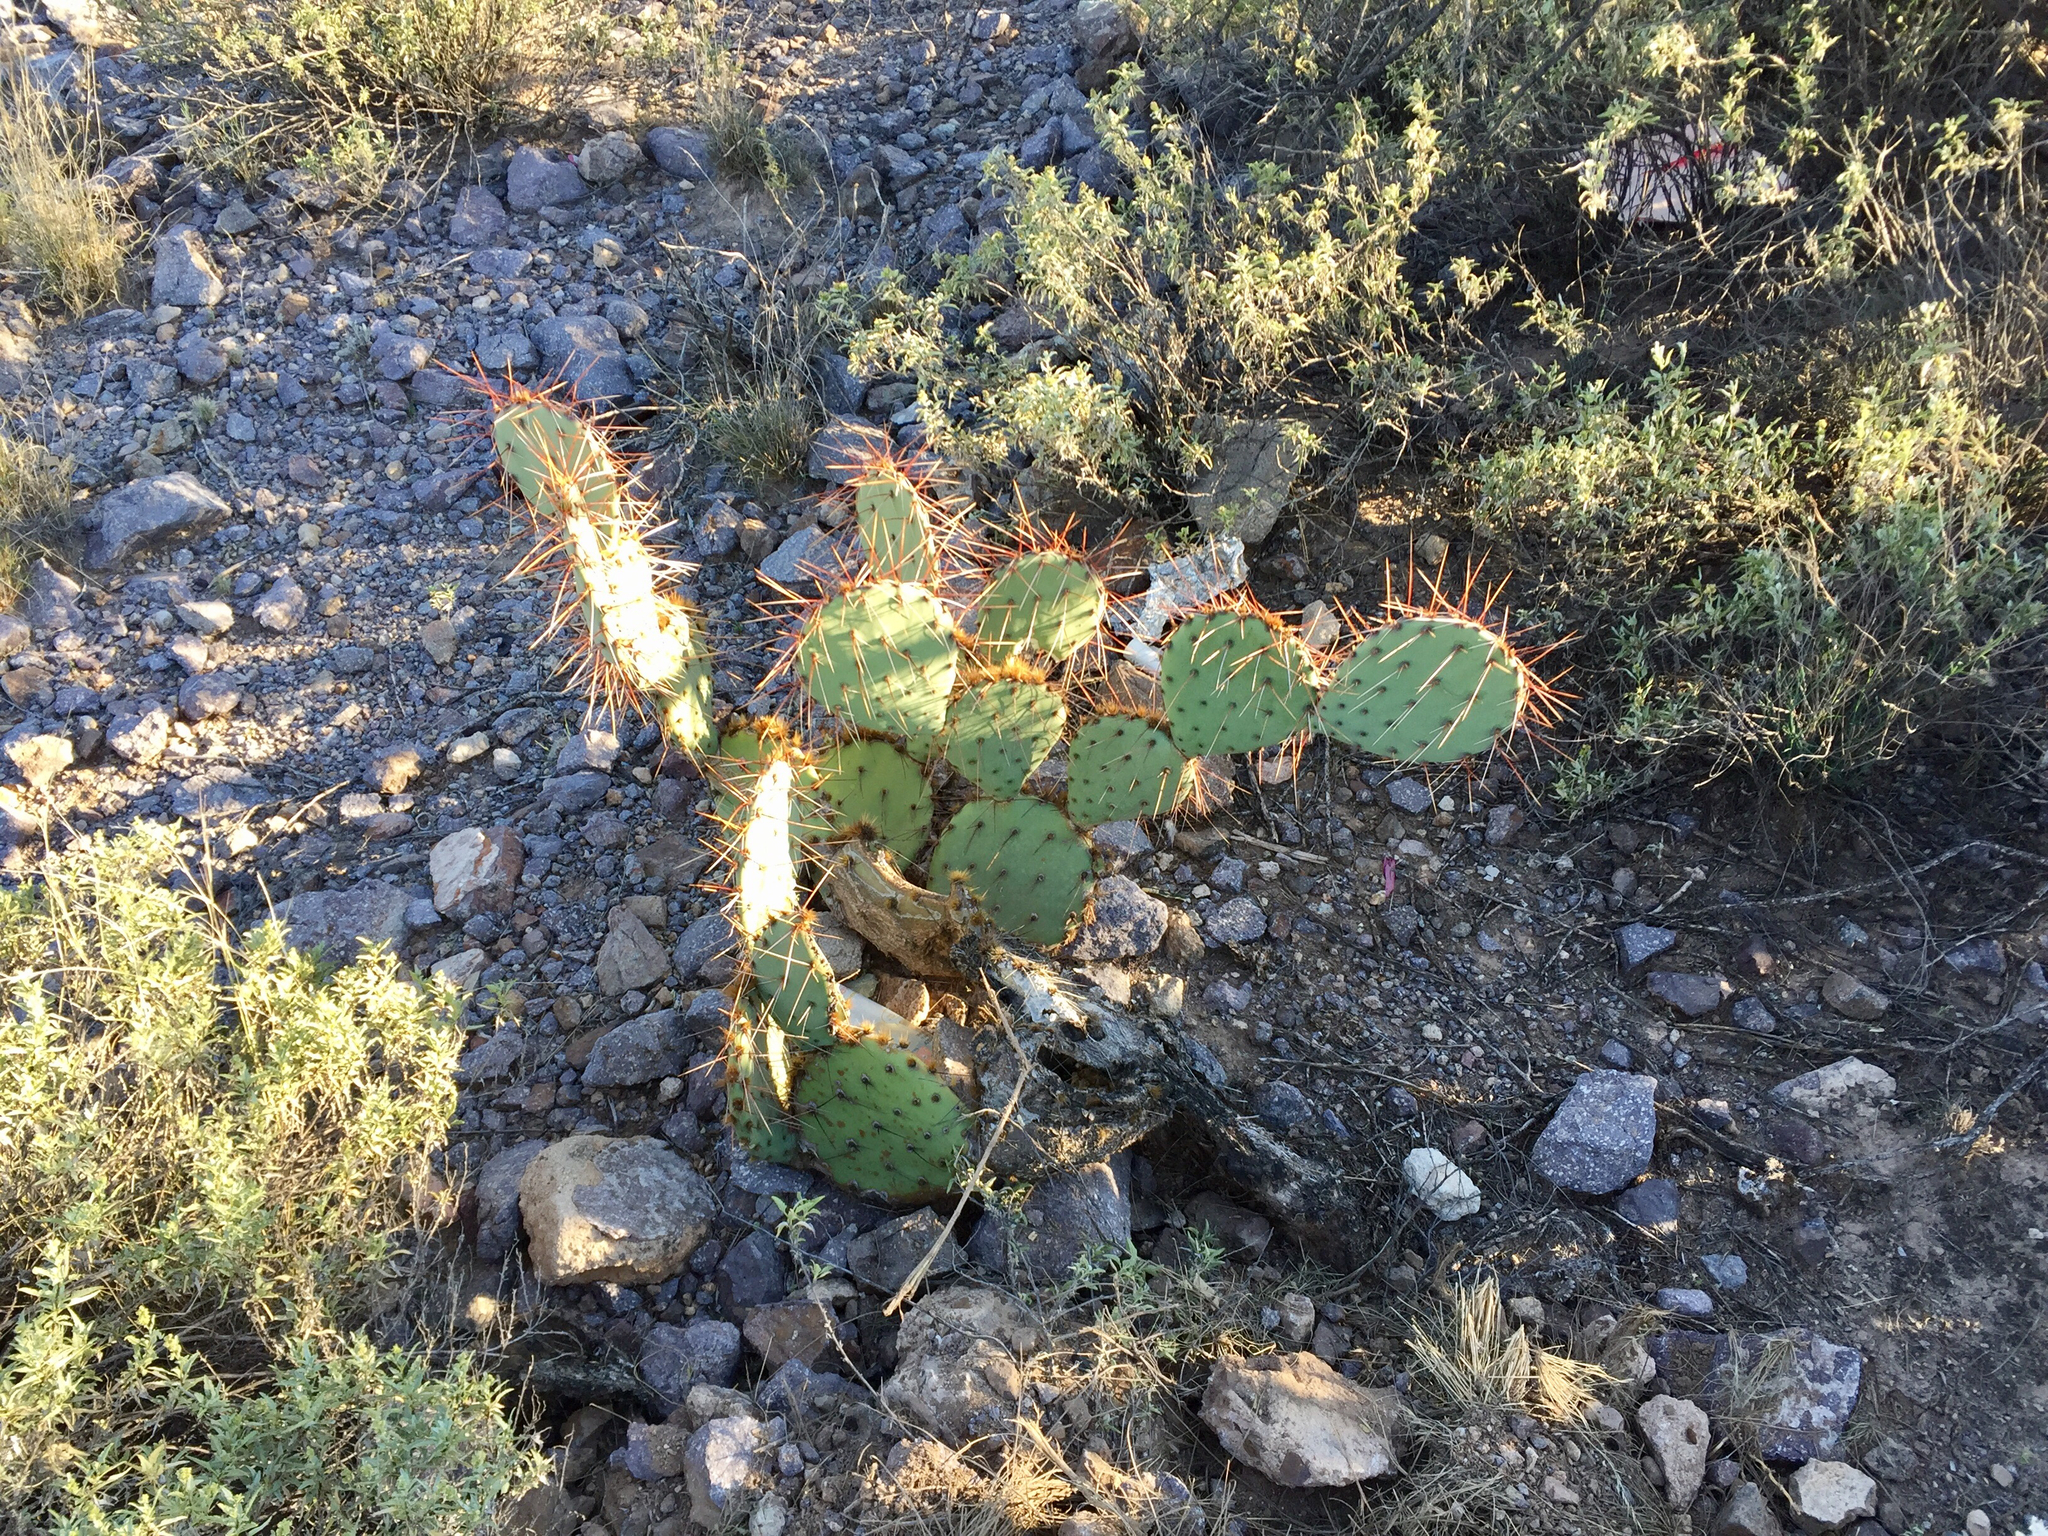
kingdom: Plantae
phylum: Tracheophyta
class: Magnoliopsida
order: Caryophyllales
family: Cactaceae
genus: Opuntia
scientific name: Opuntia phaeacantha
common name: New mexico prickly-pear
